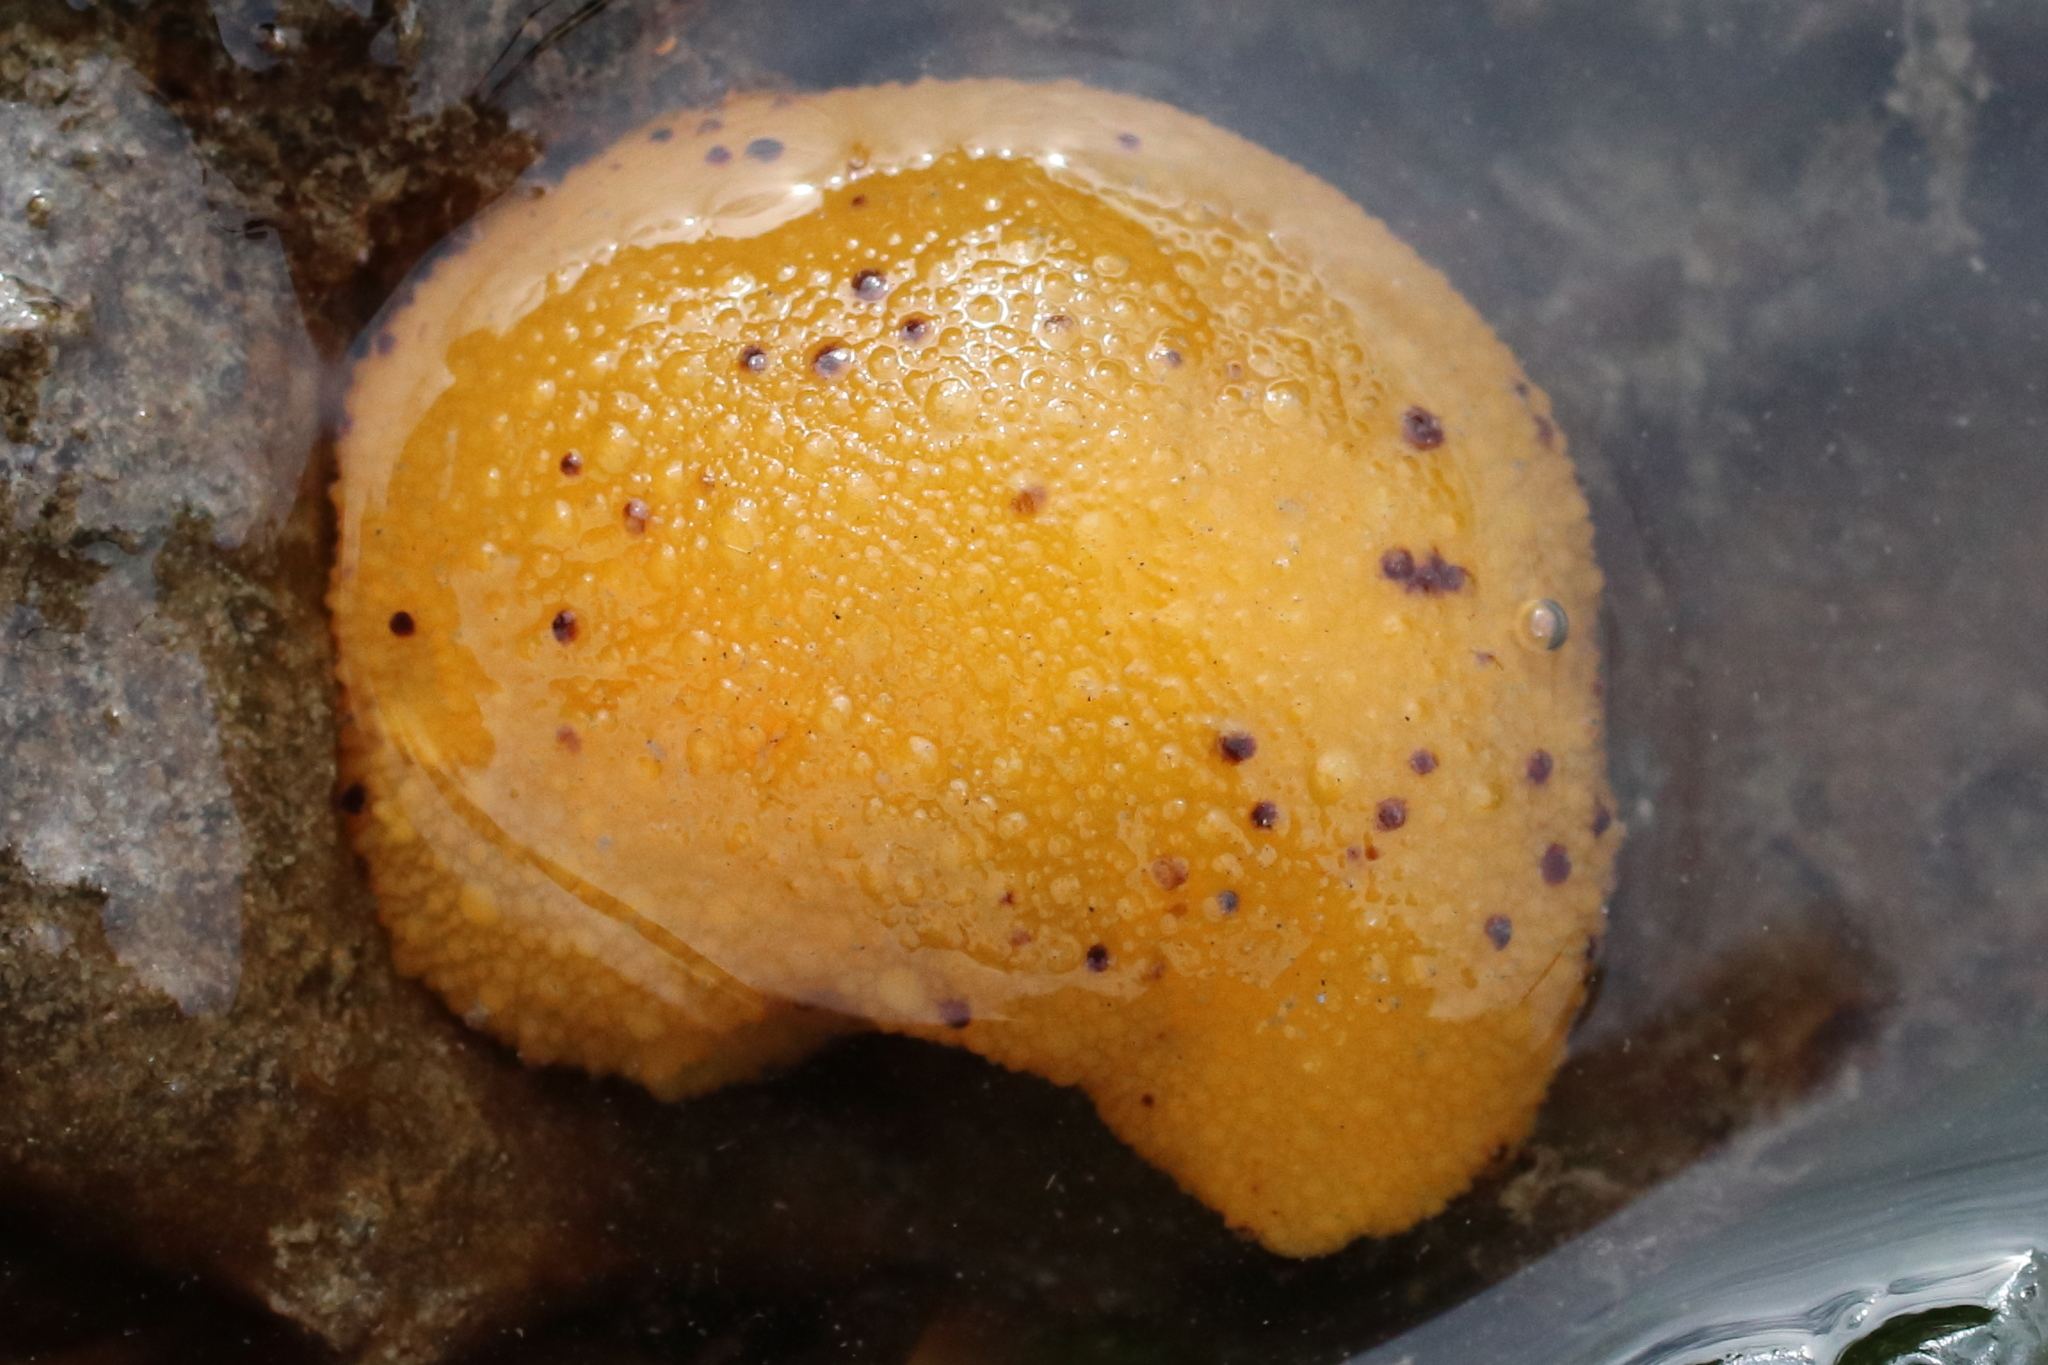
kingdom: Animalia
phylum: Mollusca
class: Gastropoda
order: Nudibranchia
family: Dorididae
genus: Doris
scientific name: Doris montereyensis
